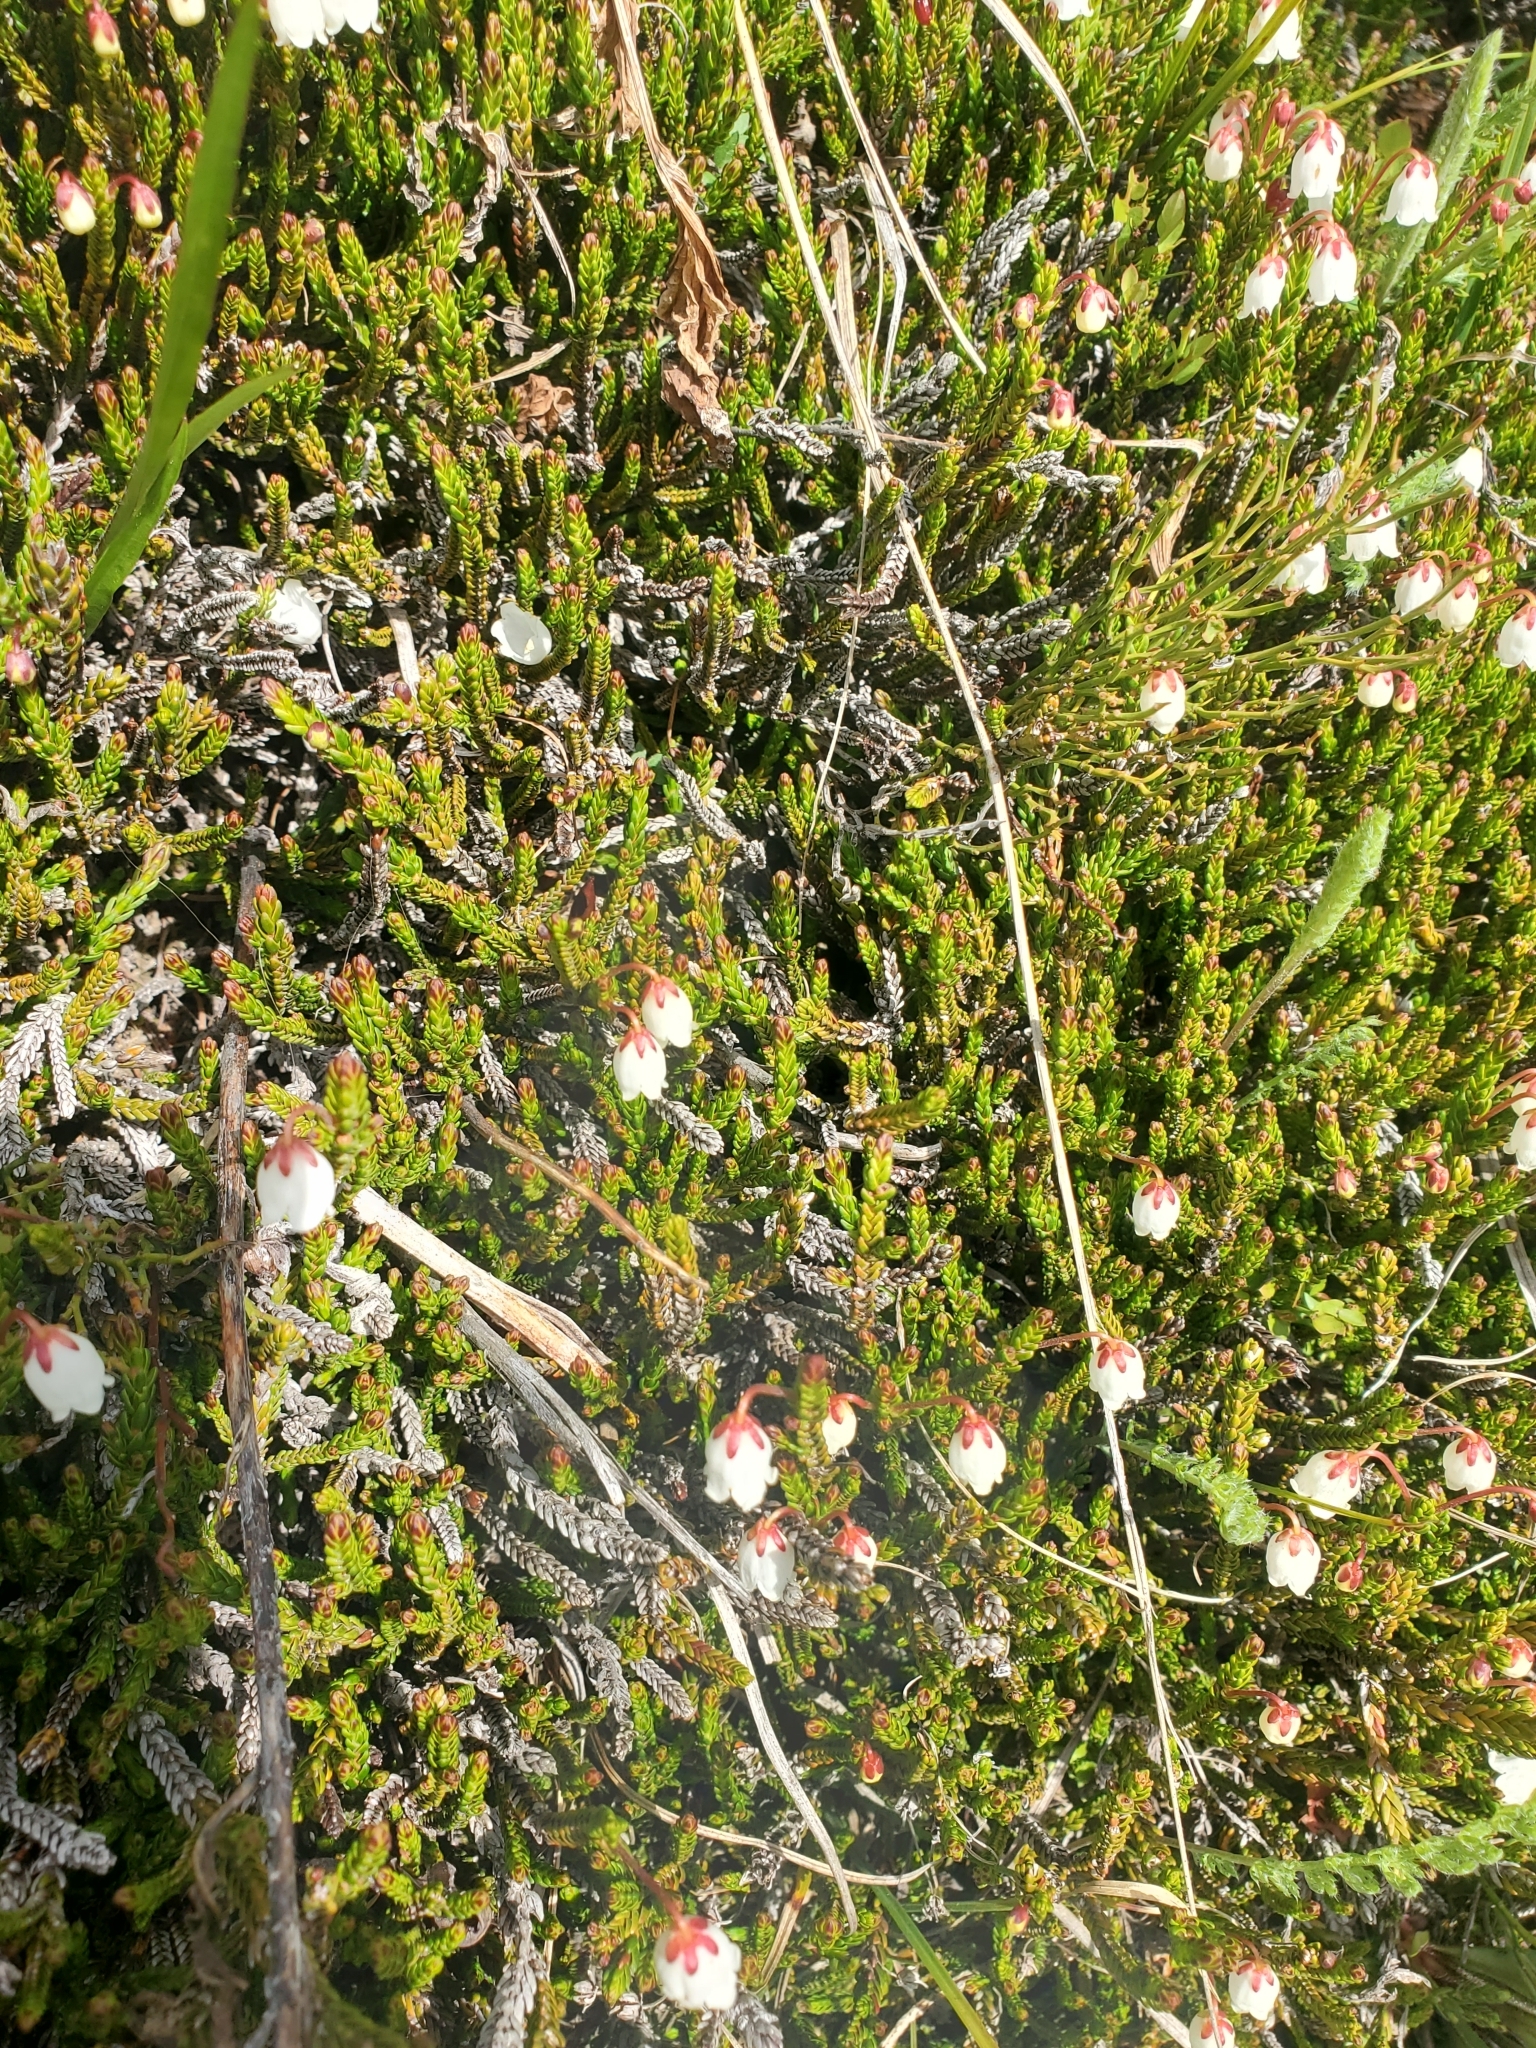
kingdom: Plantae
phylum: Tracheophyta
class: Magnoliopsida
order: Ericales
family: Ericaceae
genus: Cassiope
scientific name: Cassiope mertensiana
